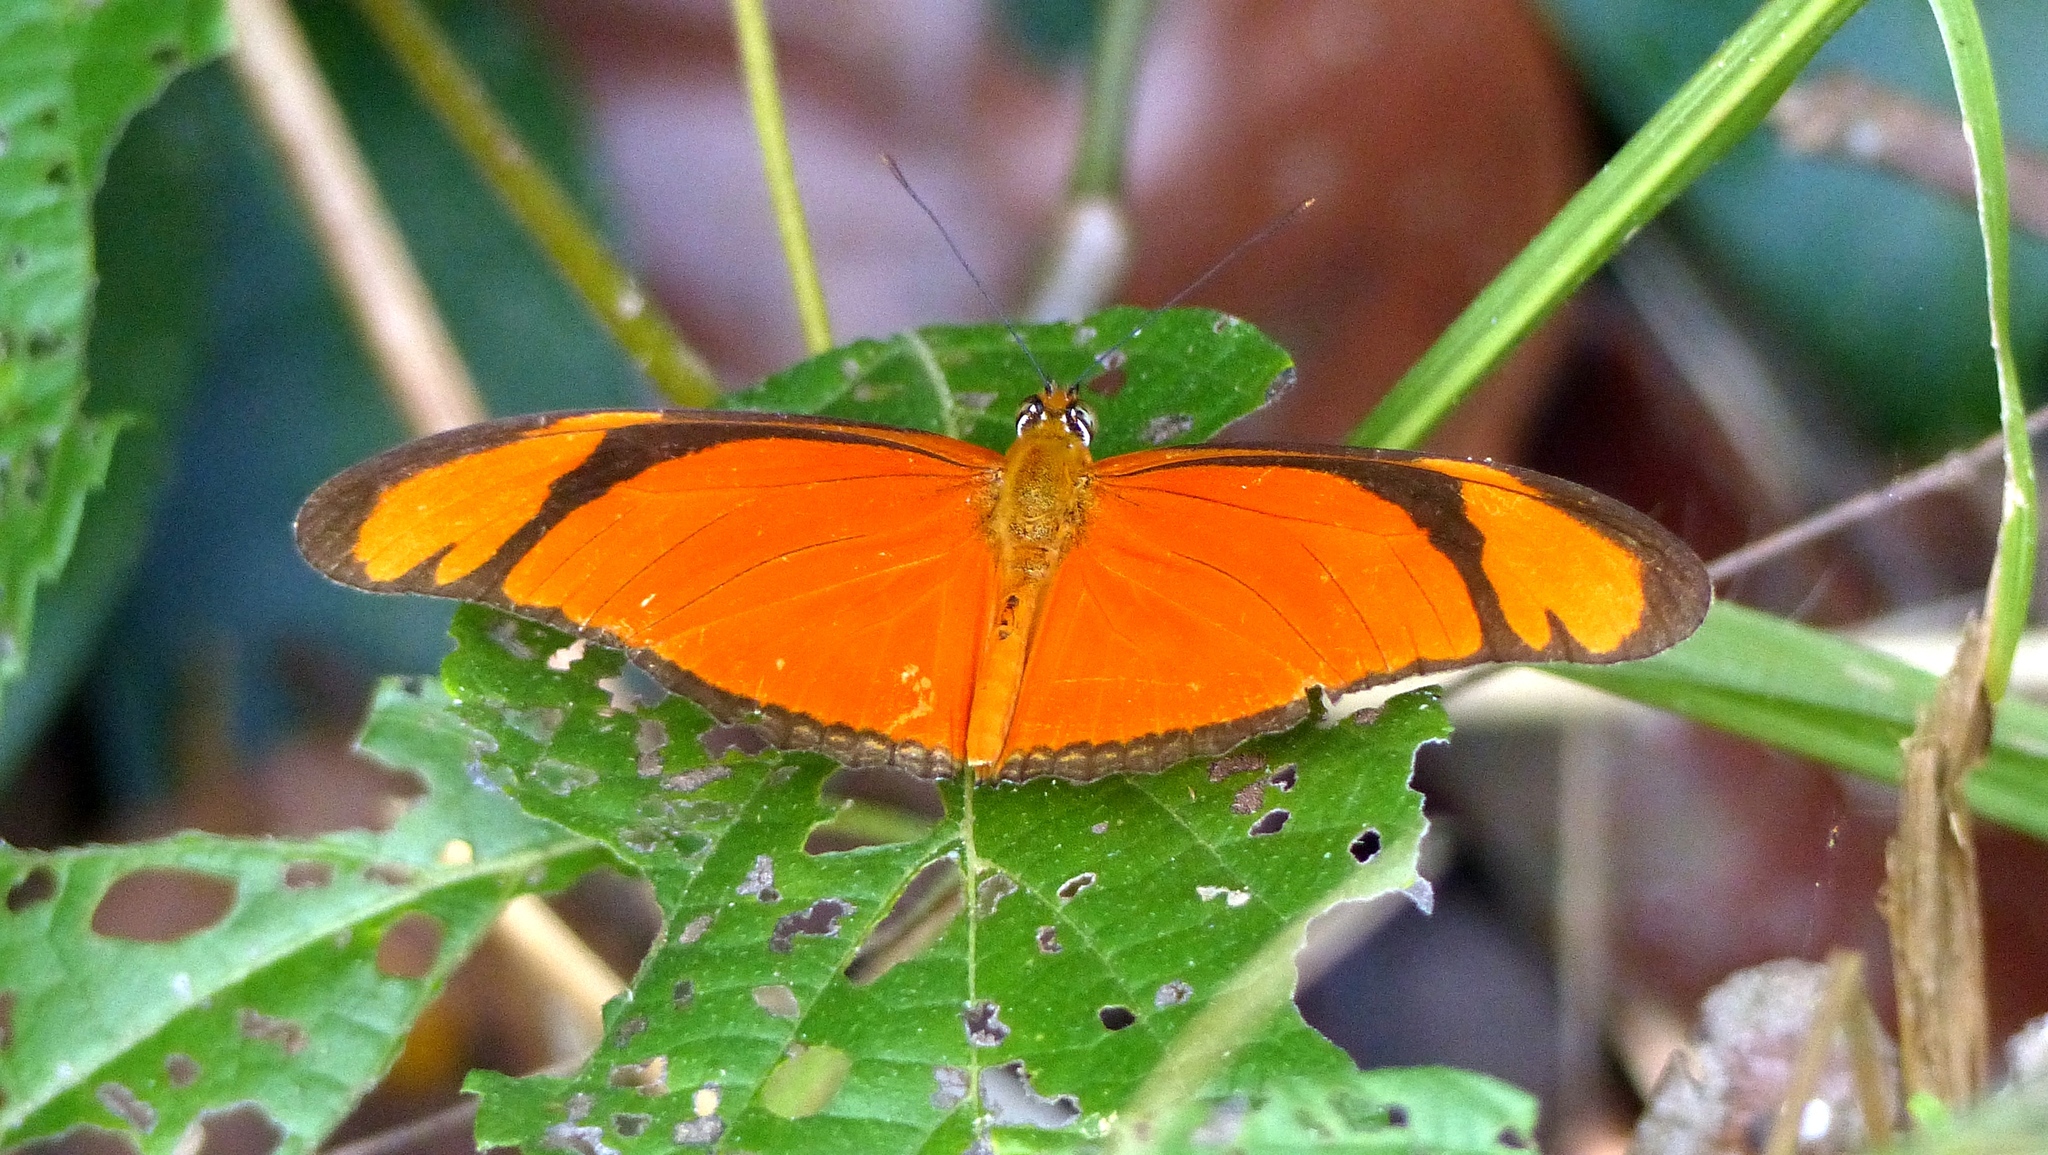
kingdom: Animalia
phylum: Arthropoda
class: Insecta
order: Lepidoptera
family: Nymphalidae
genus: Dryas
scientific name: Dryas iulia
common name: Flambeau
